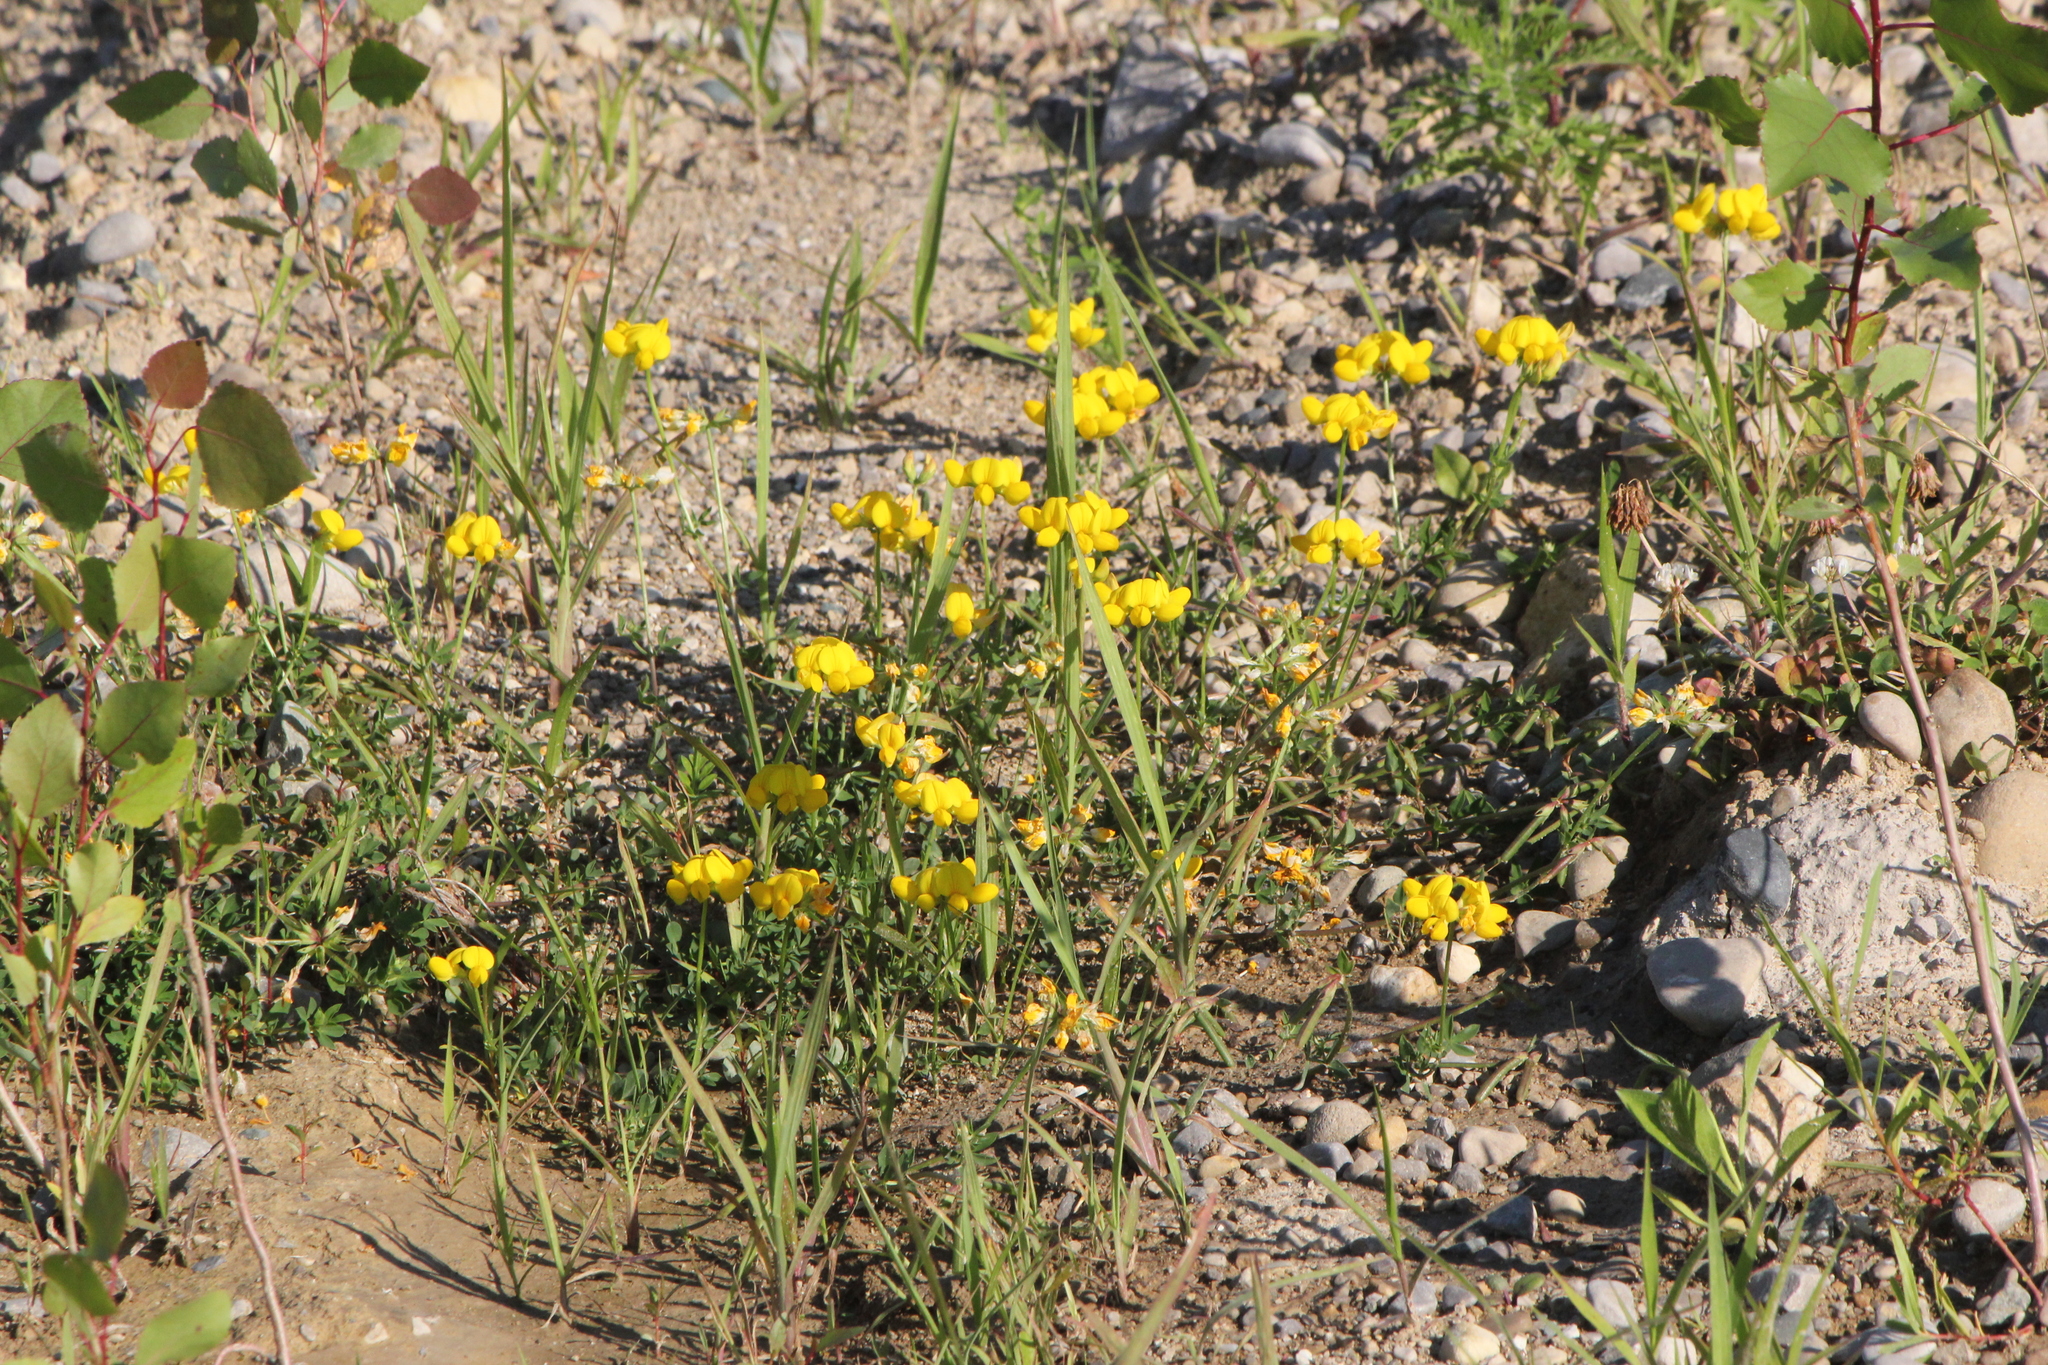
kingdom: Plantae
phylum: Tracheophyta
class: Magnoliopsida
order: Fabales
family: Fabaceae
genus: Lotus
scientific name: Lotus corniculatus
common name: Common bird's-foot-trefoil
